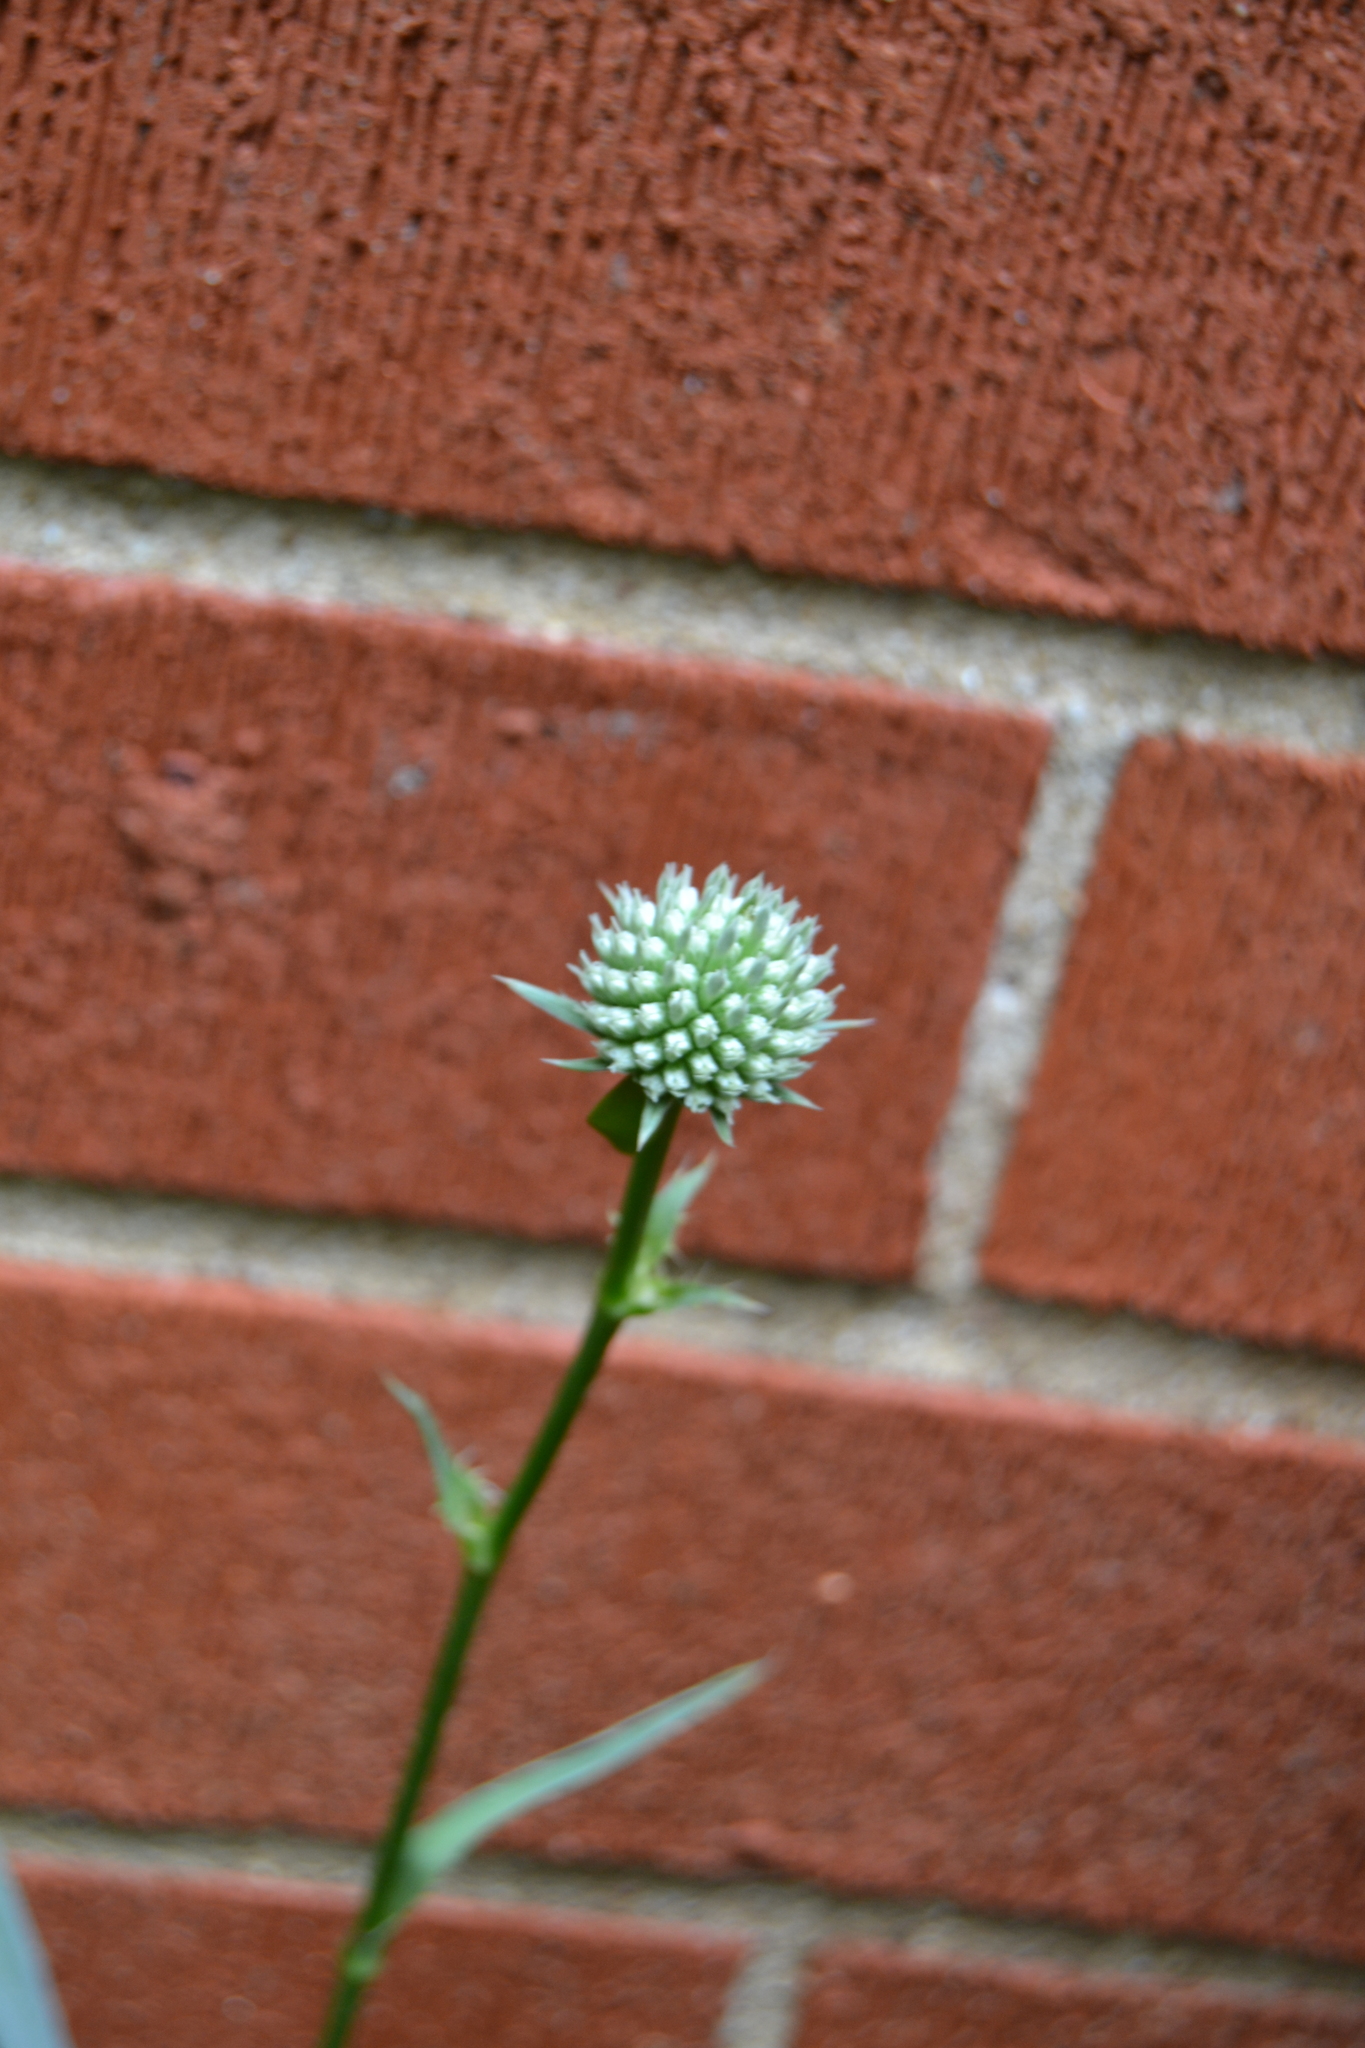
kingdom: Plantae
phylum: Tracheophyta
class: Magnoliopsida
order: Apiales
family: Apiaceae
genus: Eryngium
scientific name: Eryngium yuccifolium
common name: Button eryngo
